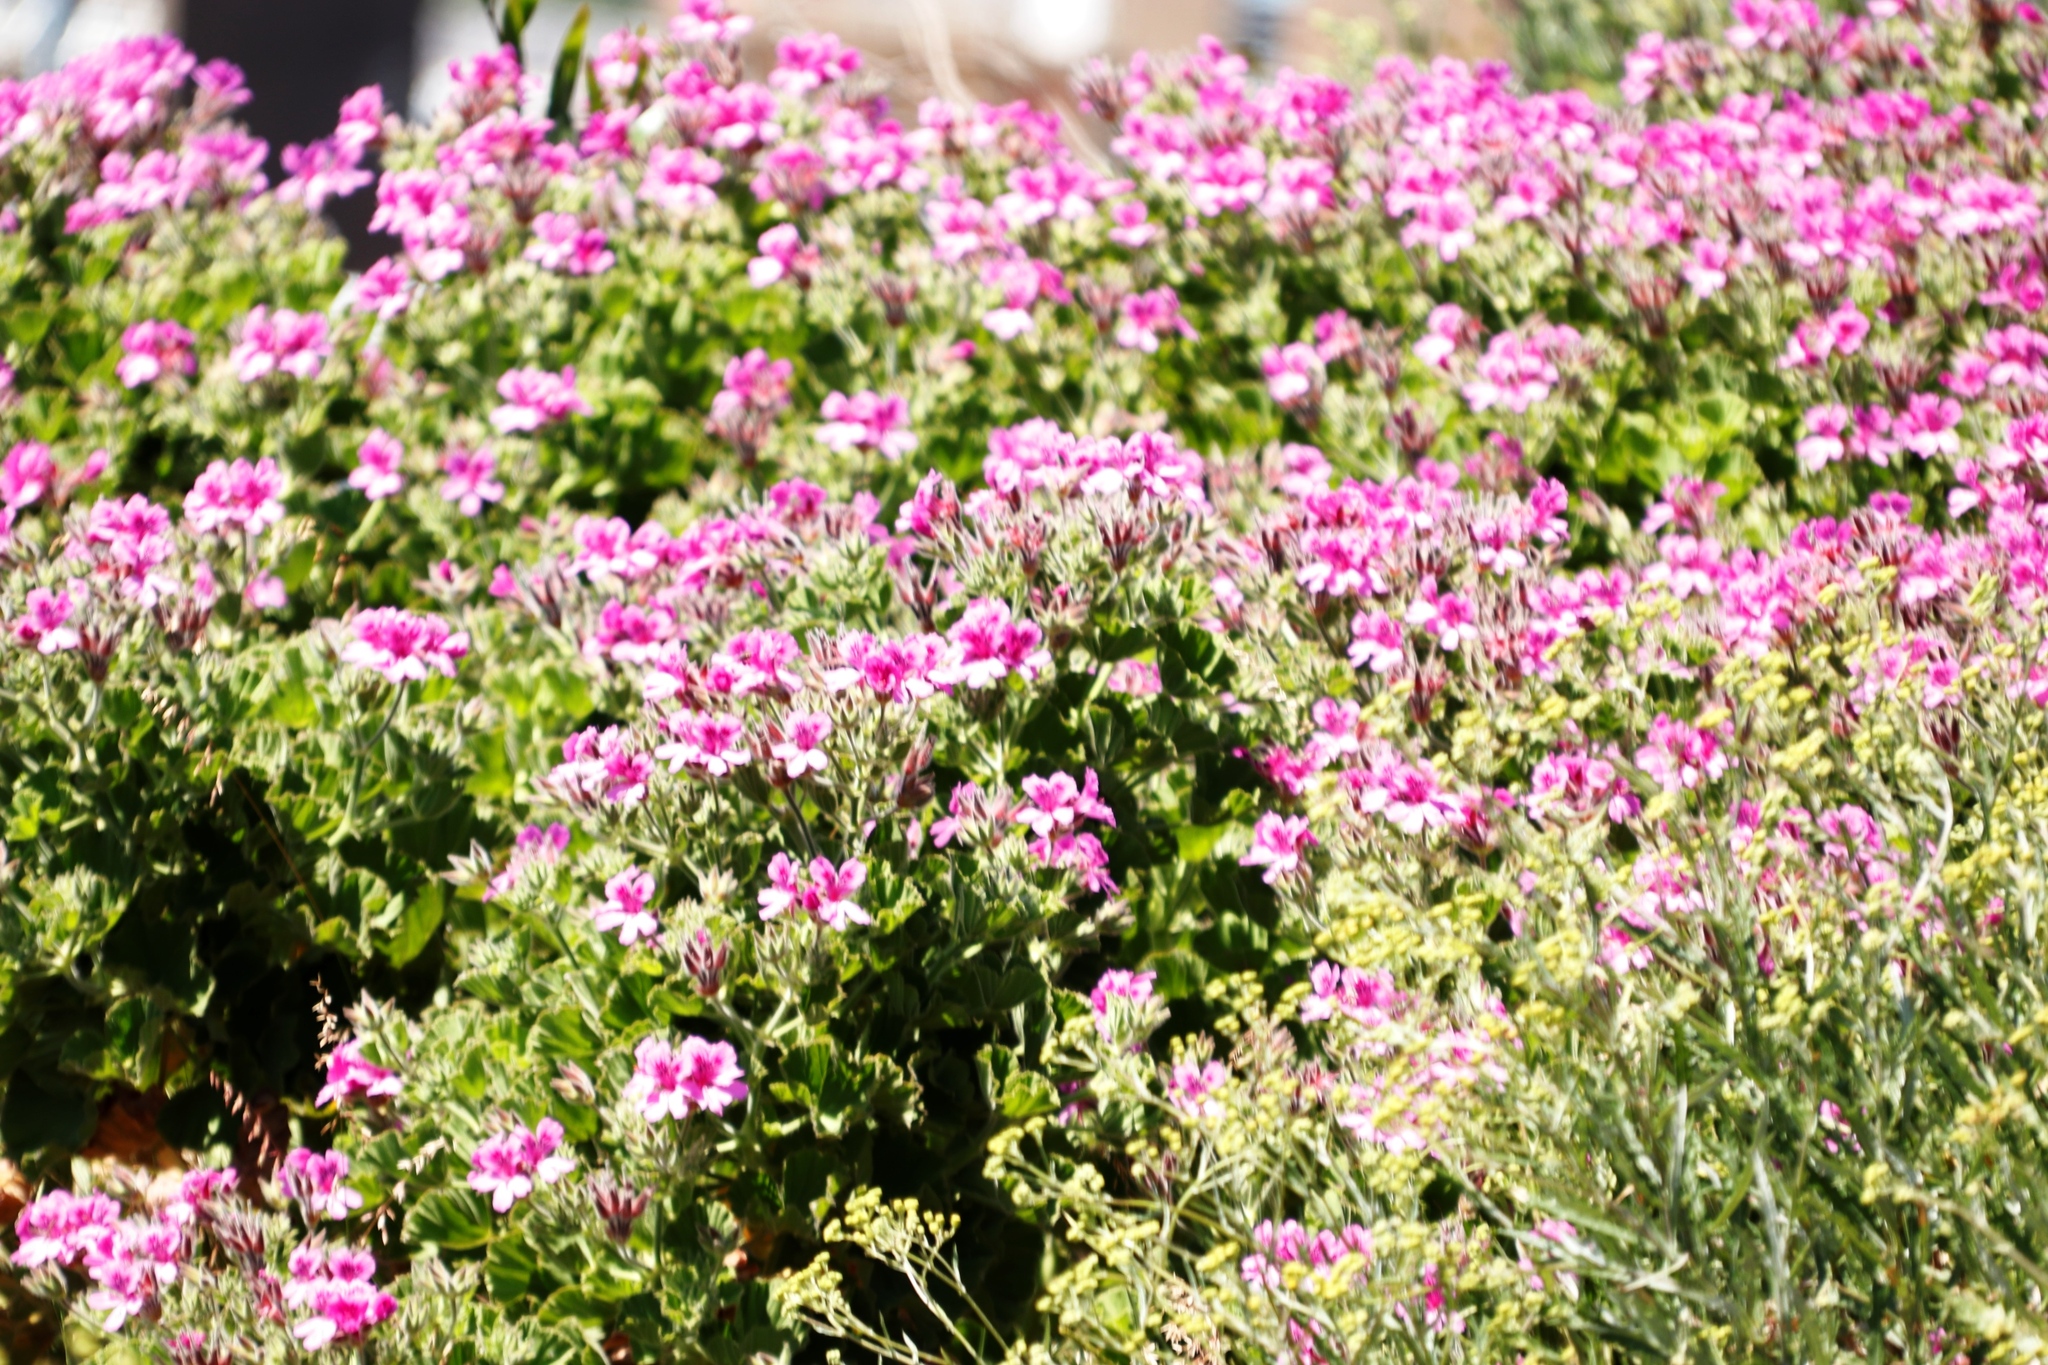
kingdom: Plantae
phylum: Tracheophyta
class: Magnoliopsida
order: Geraniales
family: Geraniaceae
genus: Pelargonium
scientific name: Pelargonium cucullatum
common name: Tree pelargonium
